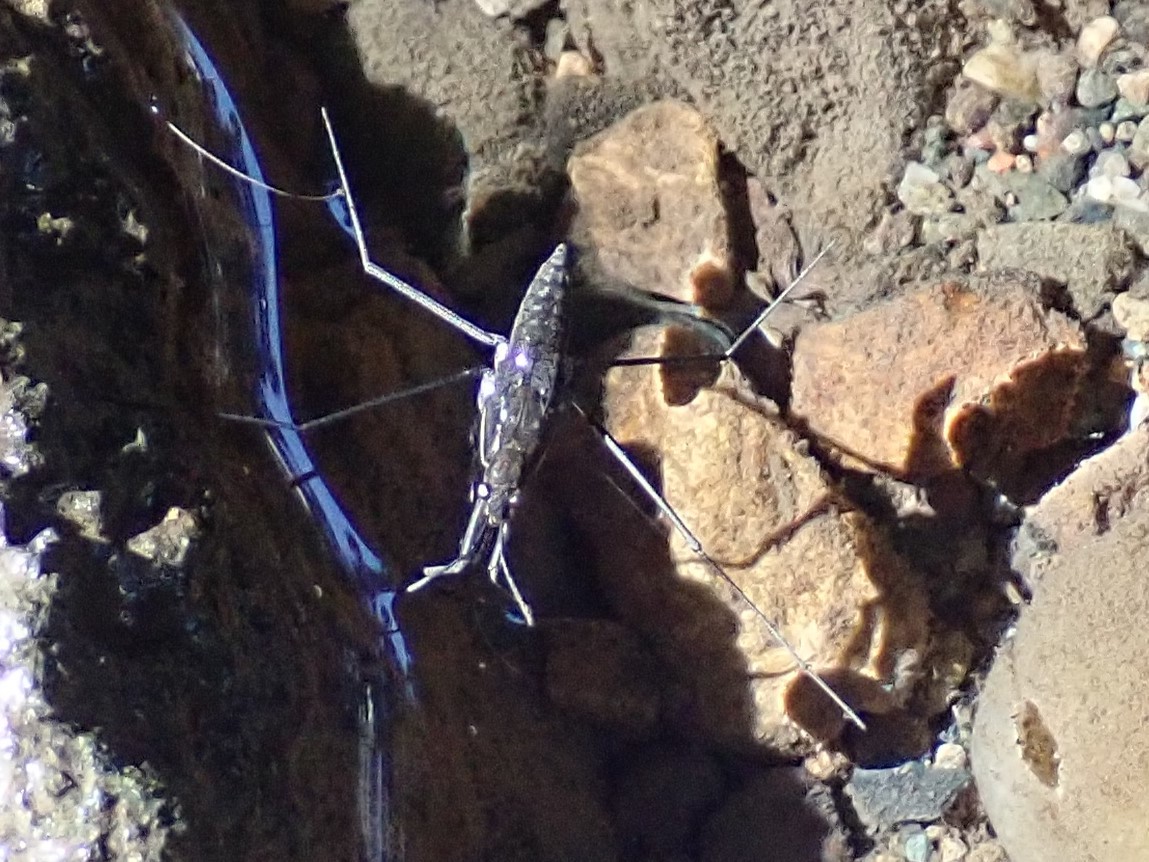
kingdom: Animalia
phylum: Arthropoda
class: Insecta
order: Hemiptera
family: Gerridae
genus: Aquarius
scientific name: Aquarius remigis
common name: Common water strider
